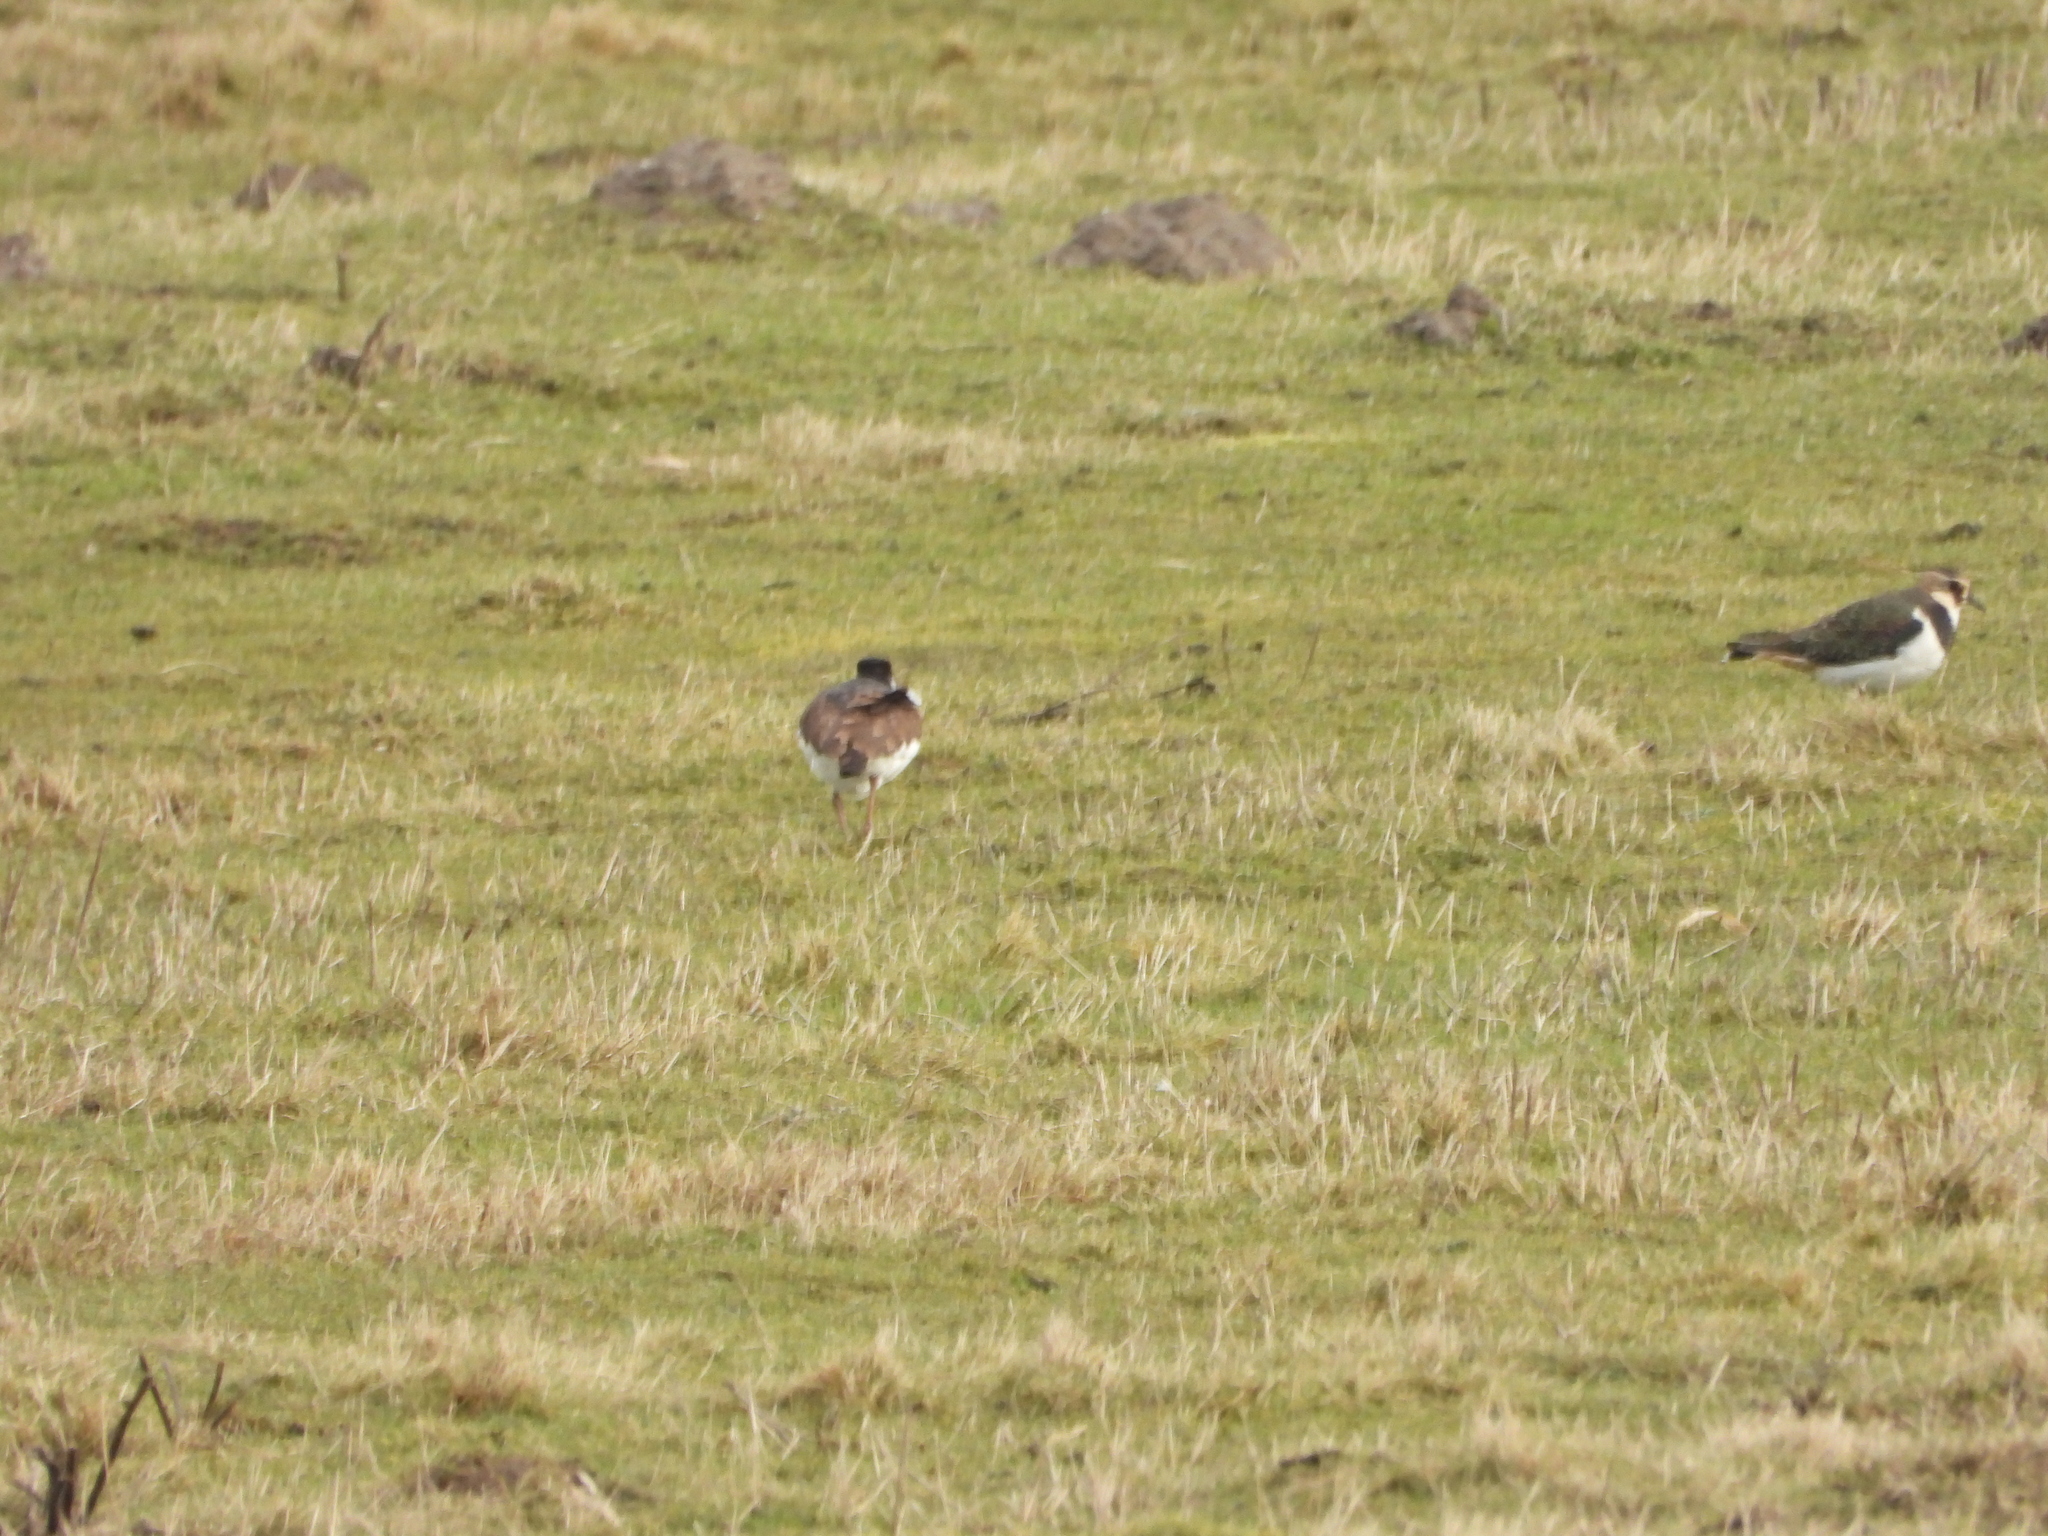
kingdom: Animalia
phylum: Chordata
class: Aves
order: Charadriiformes
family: Charadriidae
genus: Vanellus
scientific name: Vanellus vanellus
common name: Northern lapwing
